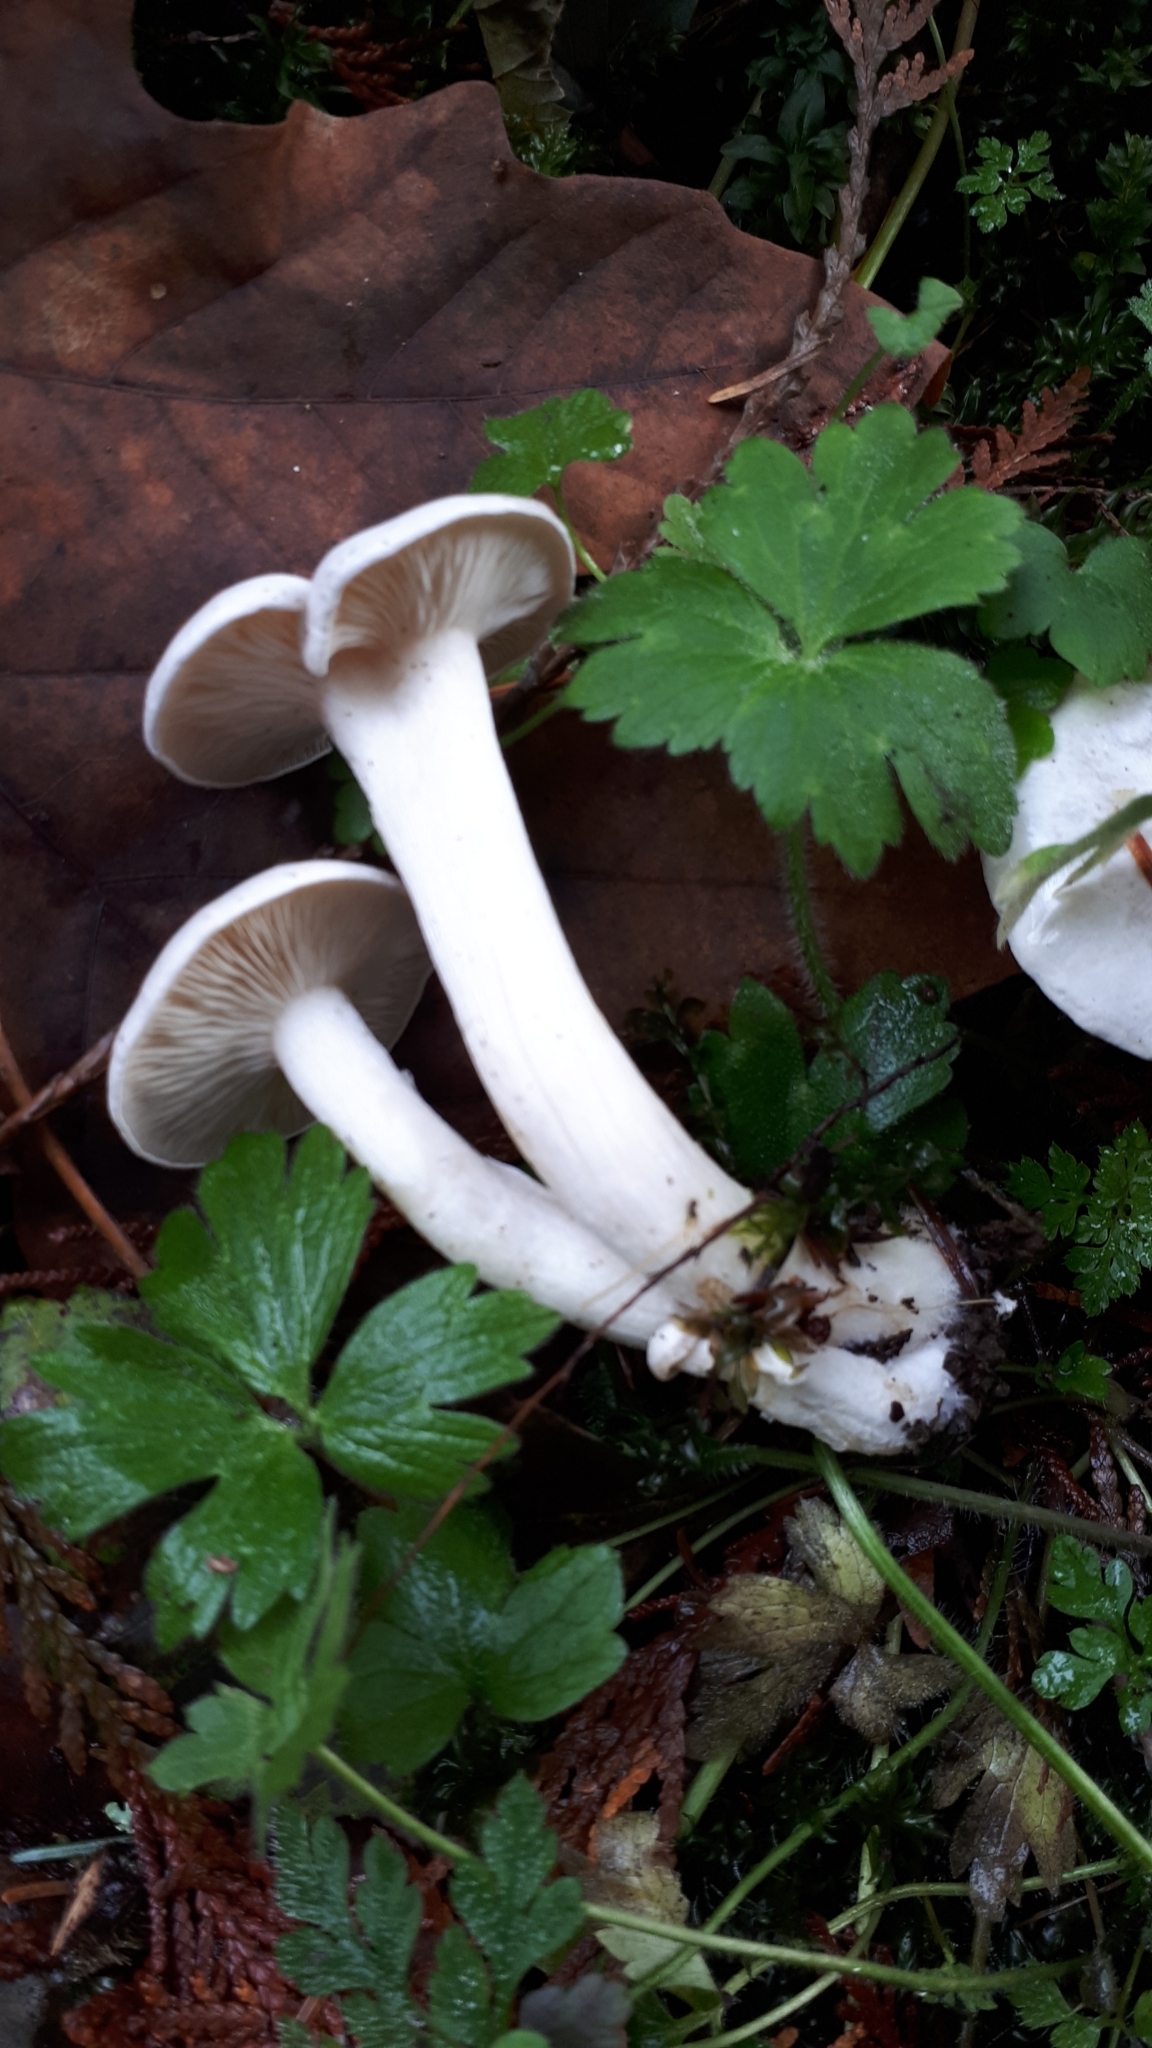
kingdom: Fungi
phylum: Basidiomycota
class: Agaricomycetes
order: Agaricales
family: Tricholomataceae
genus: Clitocybe
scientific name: Clitocybe phyllophila
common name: Frosty funnel
